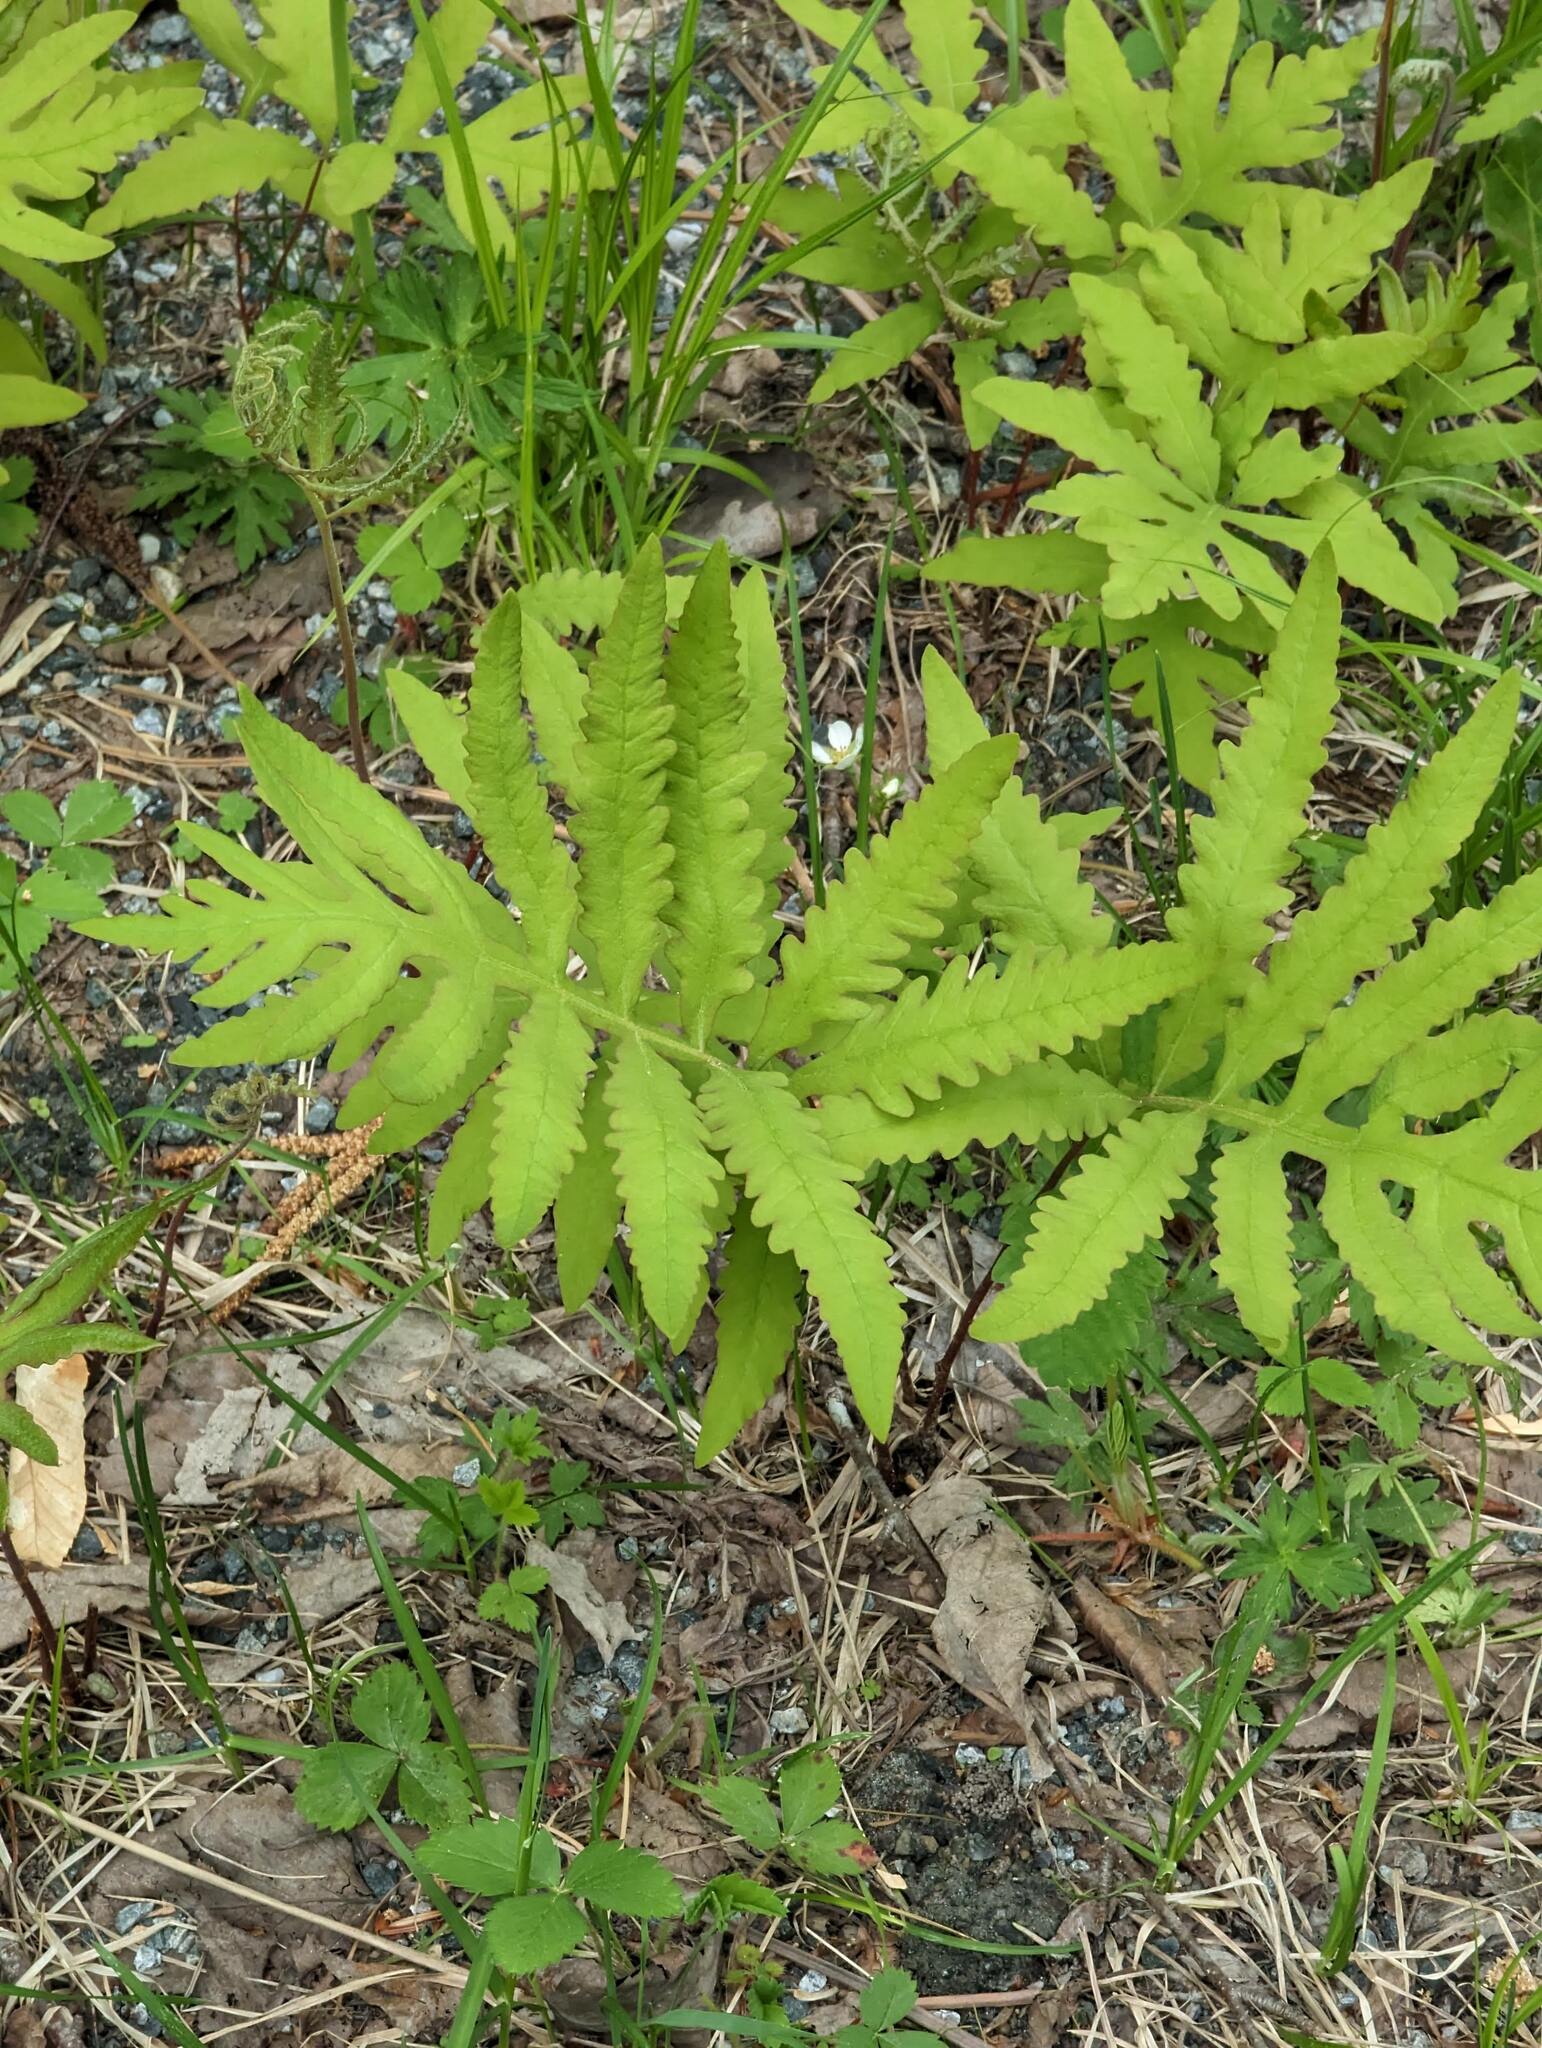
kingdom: Plantae
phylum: Tracheophyta
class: Polypodiopsida
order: Polypodiales
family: Onocleaceae
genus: Onoclea
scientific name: Onoclea sensibilis
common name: Sensitive fern
